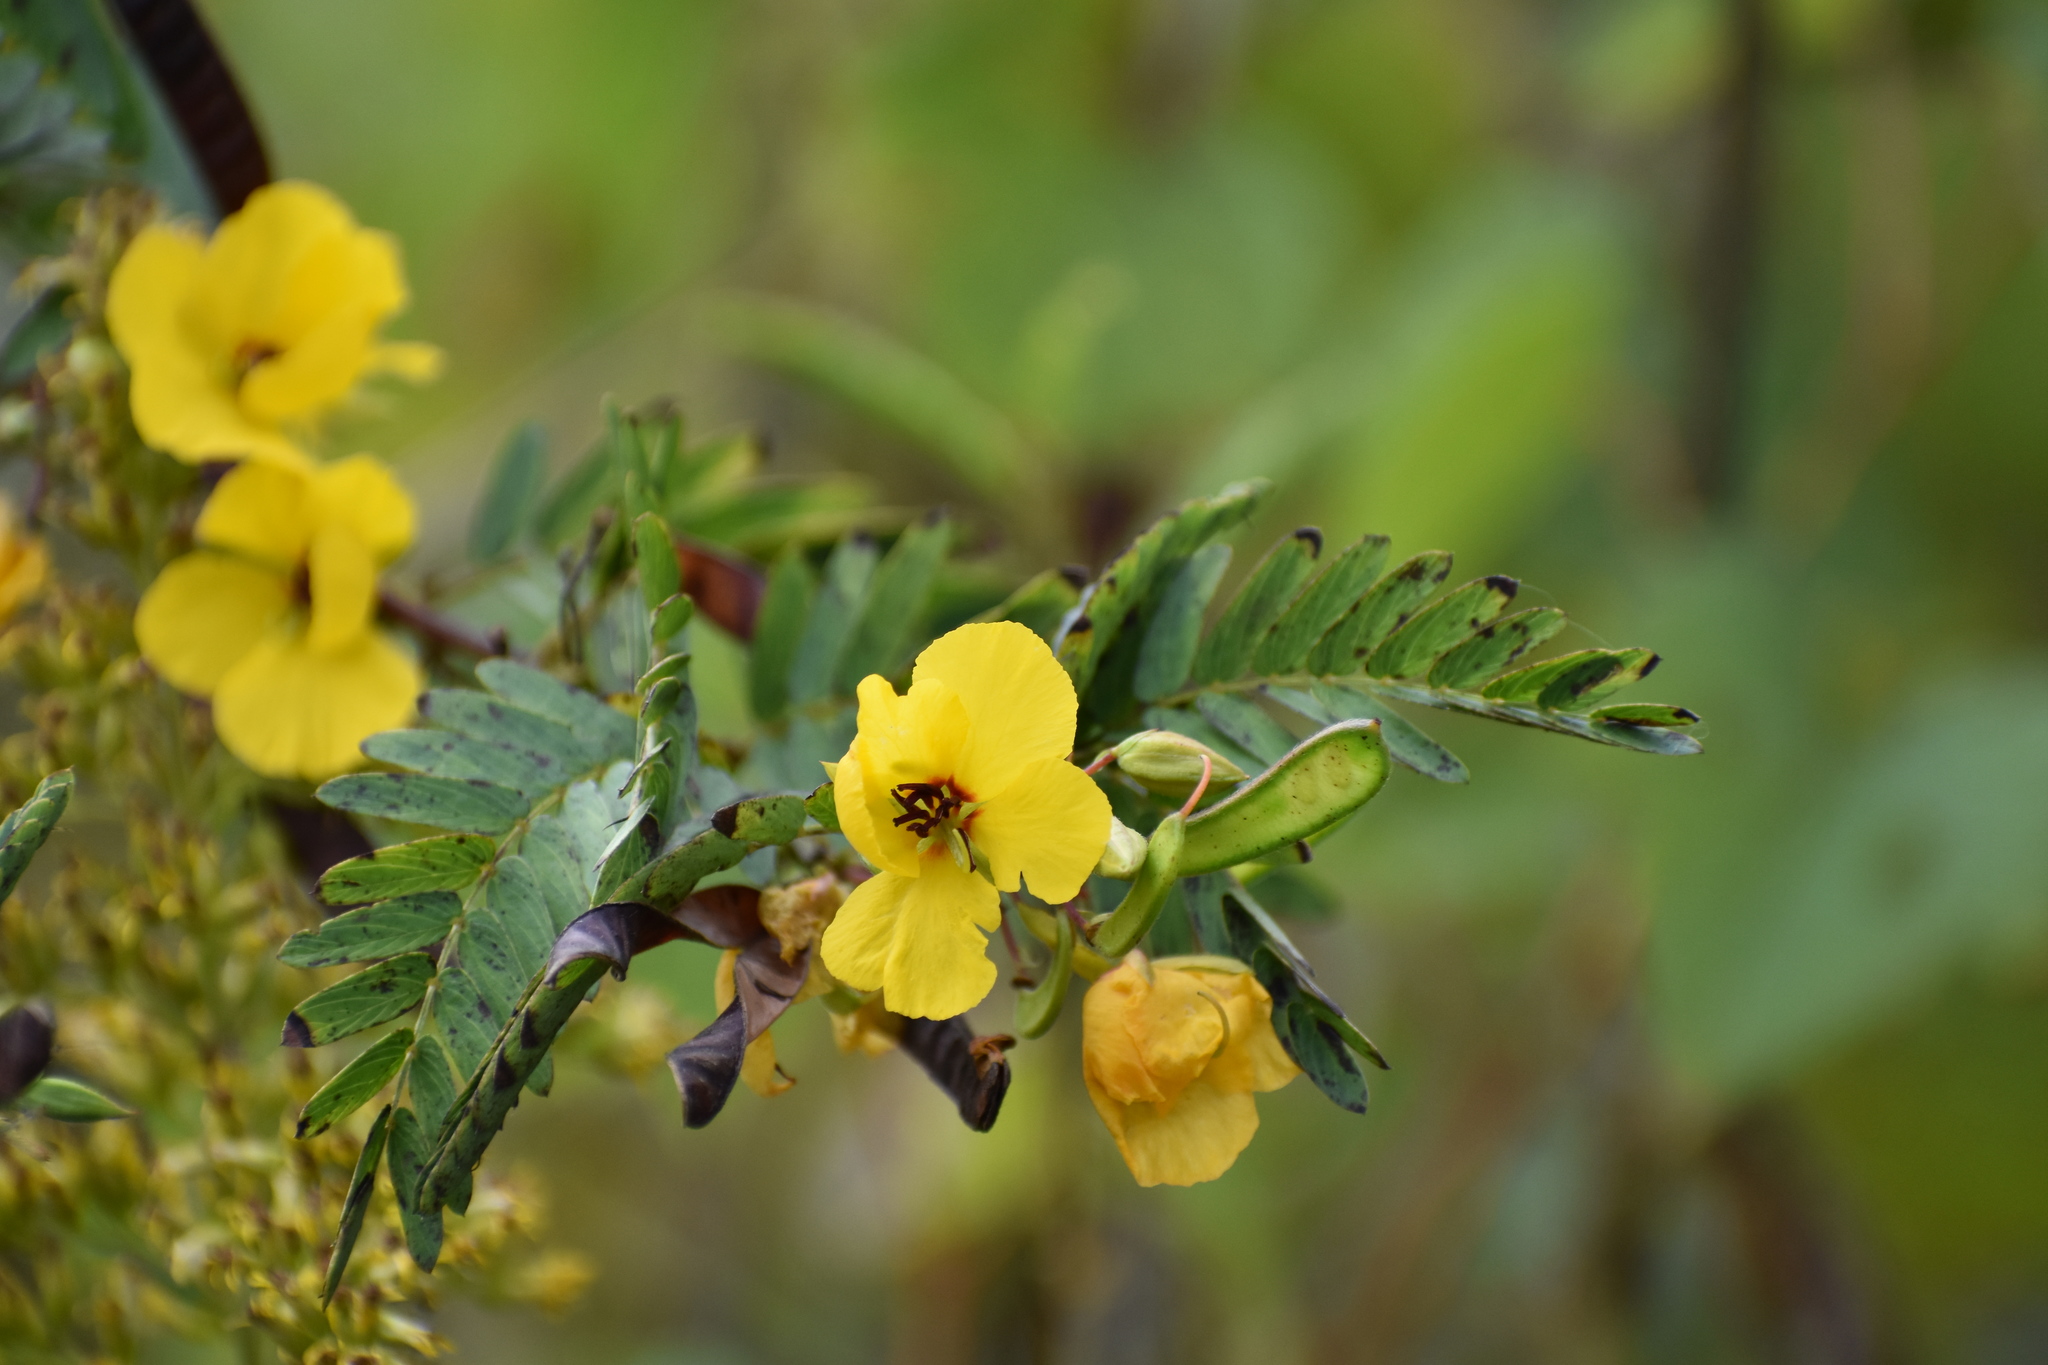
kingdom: Plantae
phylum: Tracheophyta
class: Magnoliopsida
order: Fabales
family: Fabaceae
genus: Chamaecrista
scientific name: Chamaecrista fasciculata
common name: Golden cassia
